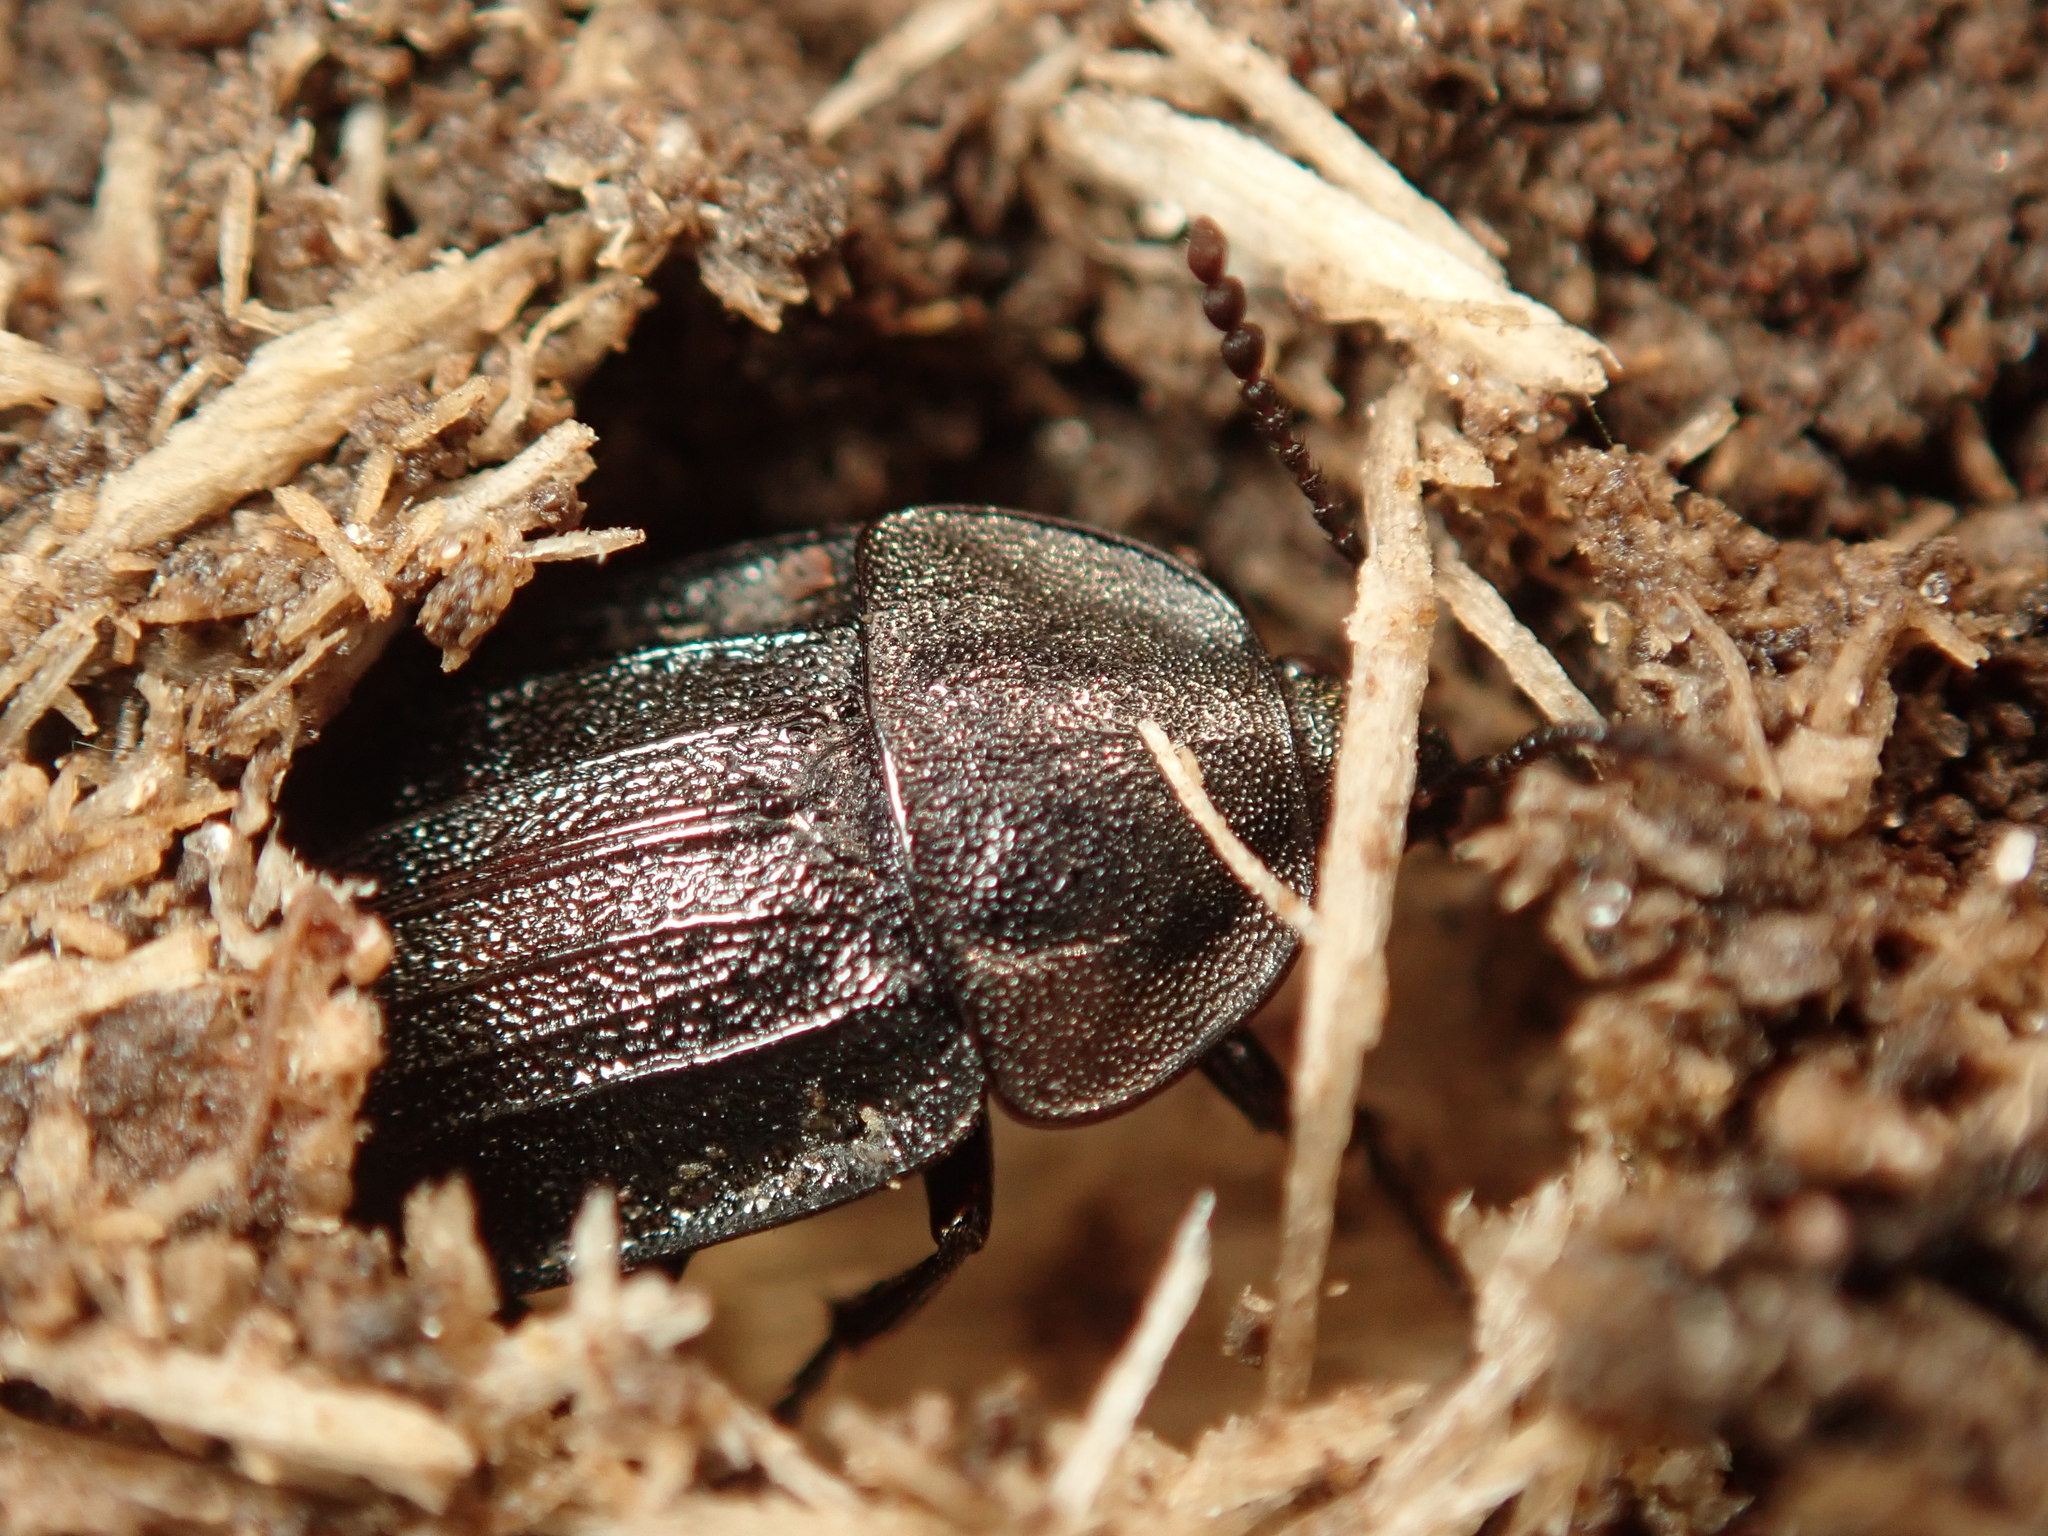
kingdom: Animalia
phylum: Arthropoda
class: Insecta
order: Coleoptera
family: Staphylinidae
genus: Silpha
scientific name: Silpha atrata
